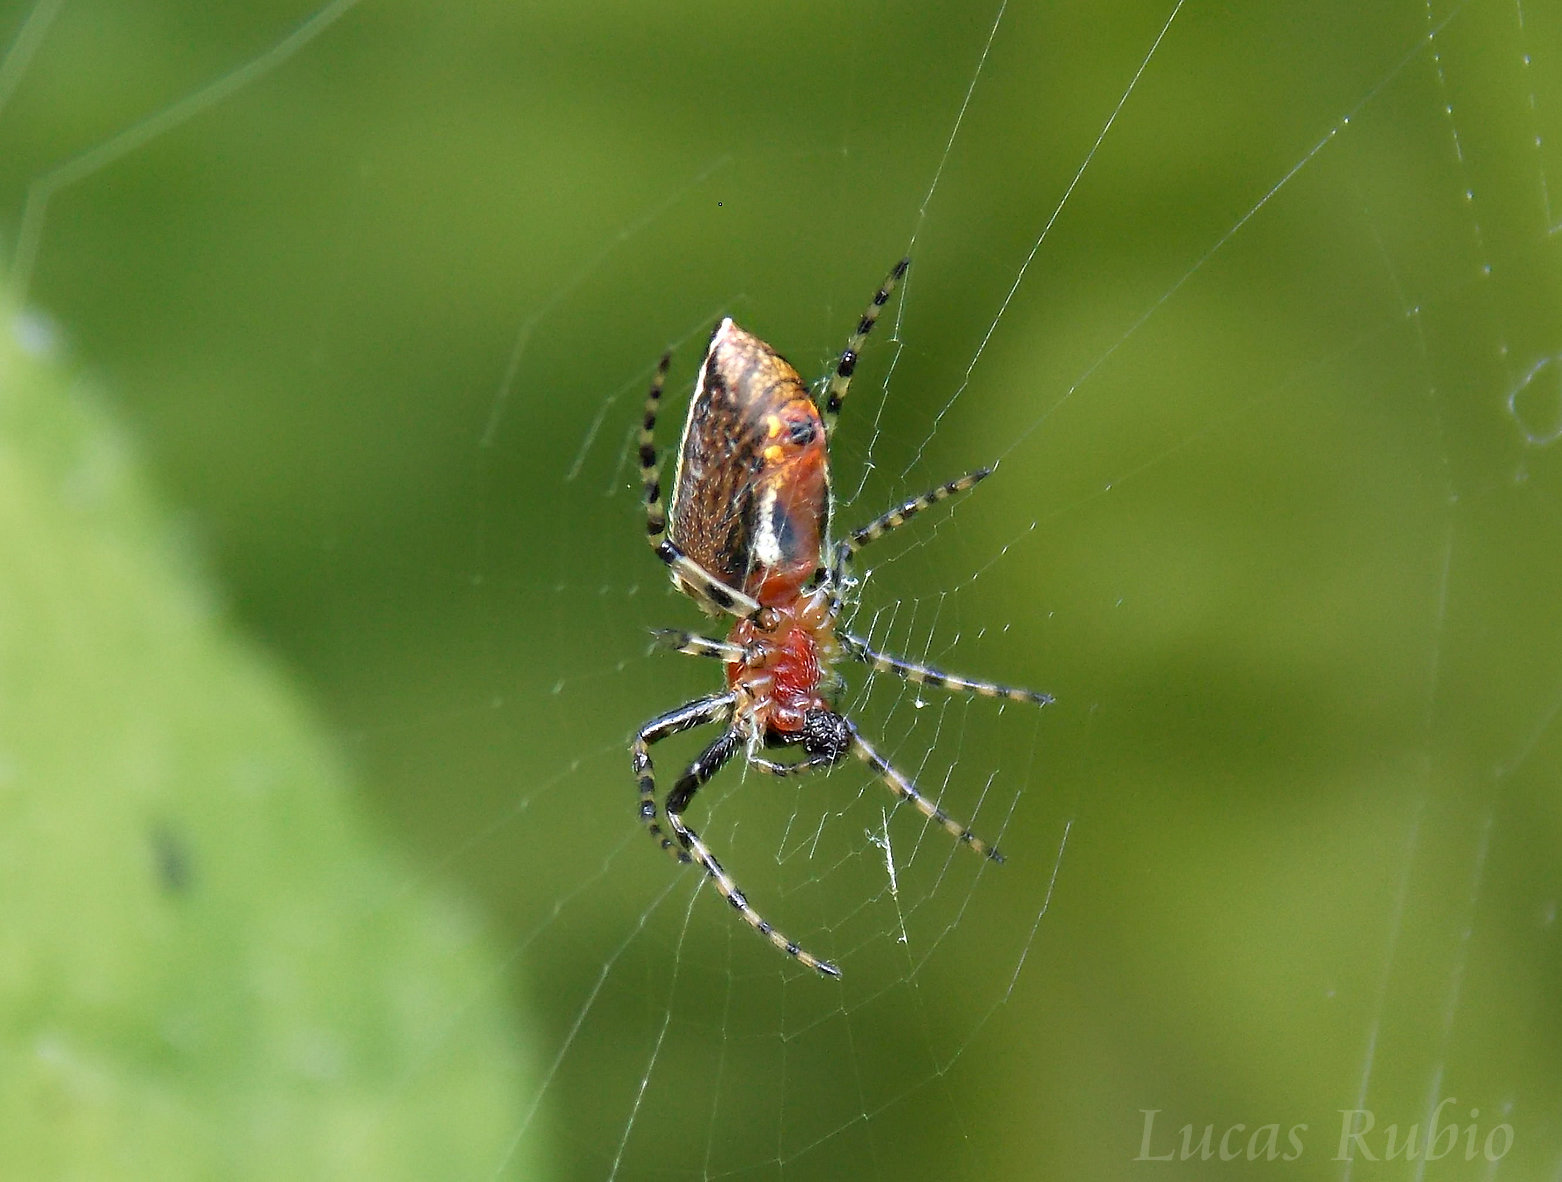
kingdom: Animalia
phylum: Arthropoda
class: Arachnida
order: Araneae
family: Araneidae
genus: Alpaida
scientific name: Alpaida leucogramma
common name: Orb weavers
